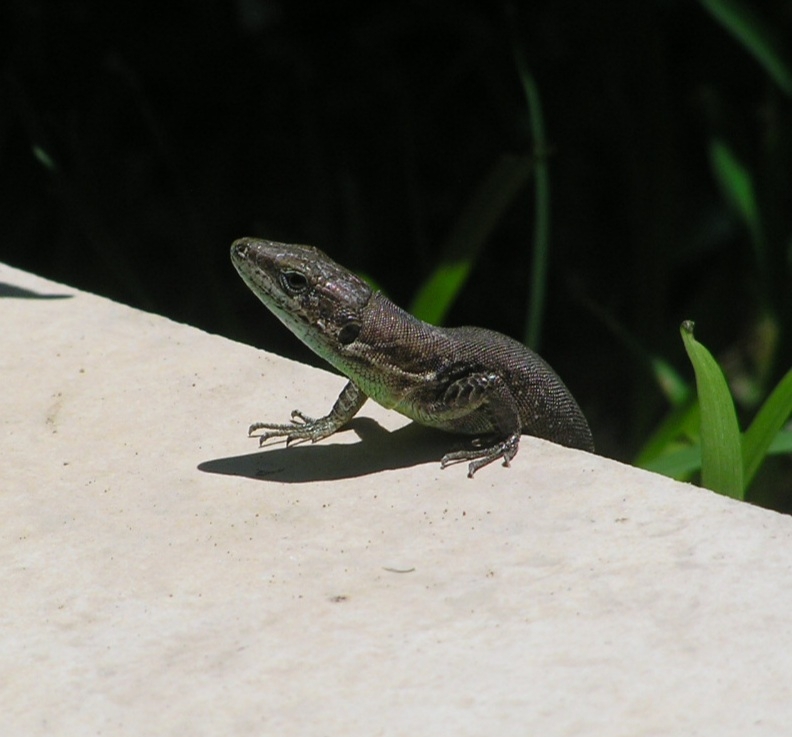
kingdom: Animalia
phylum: Chordata
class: Squamata
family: Lacertidae
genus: Phoenicolacerta
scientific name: Phoenicolacerta laevis
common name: Lebanon lizard
